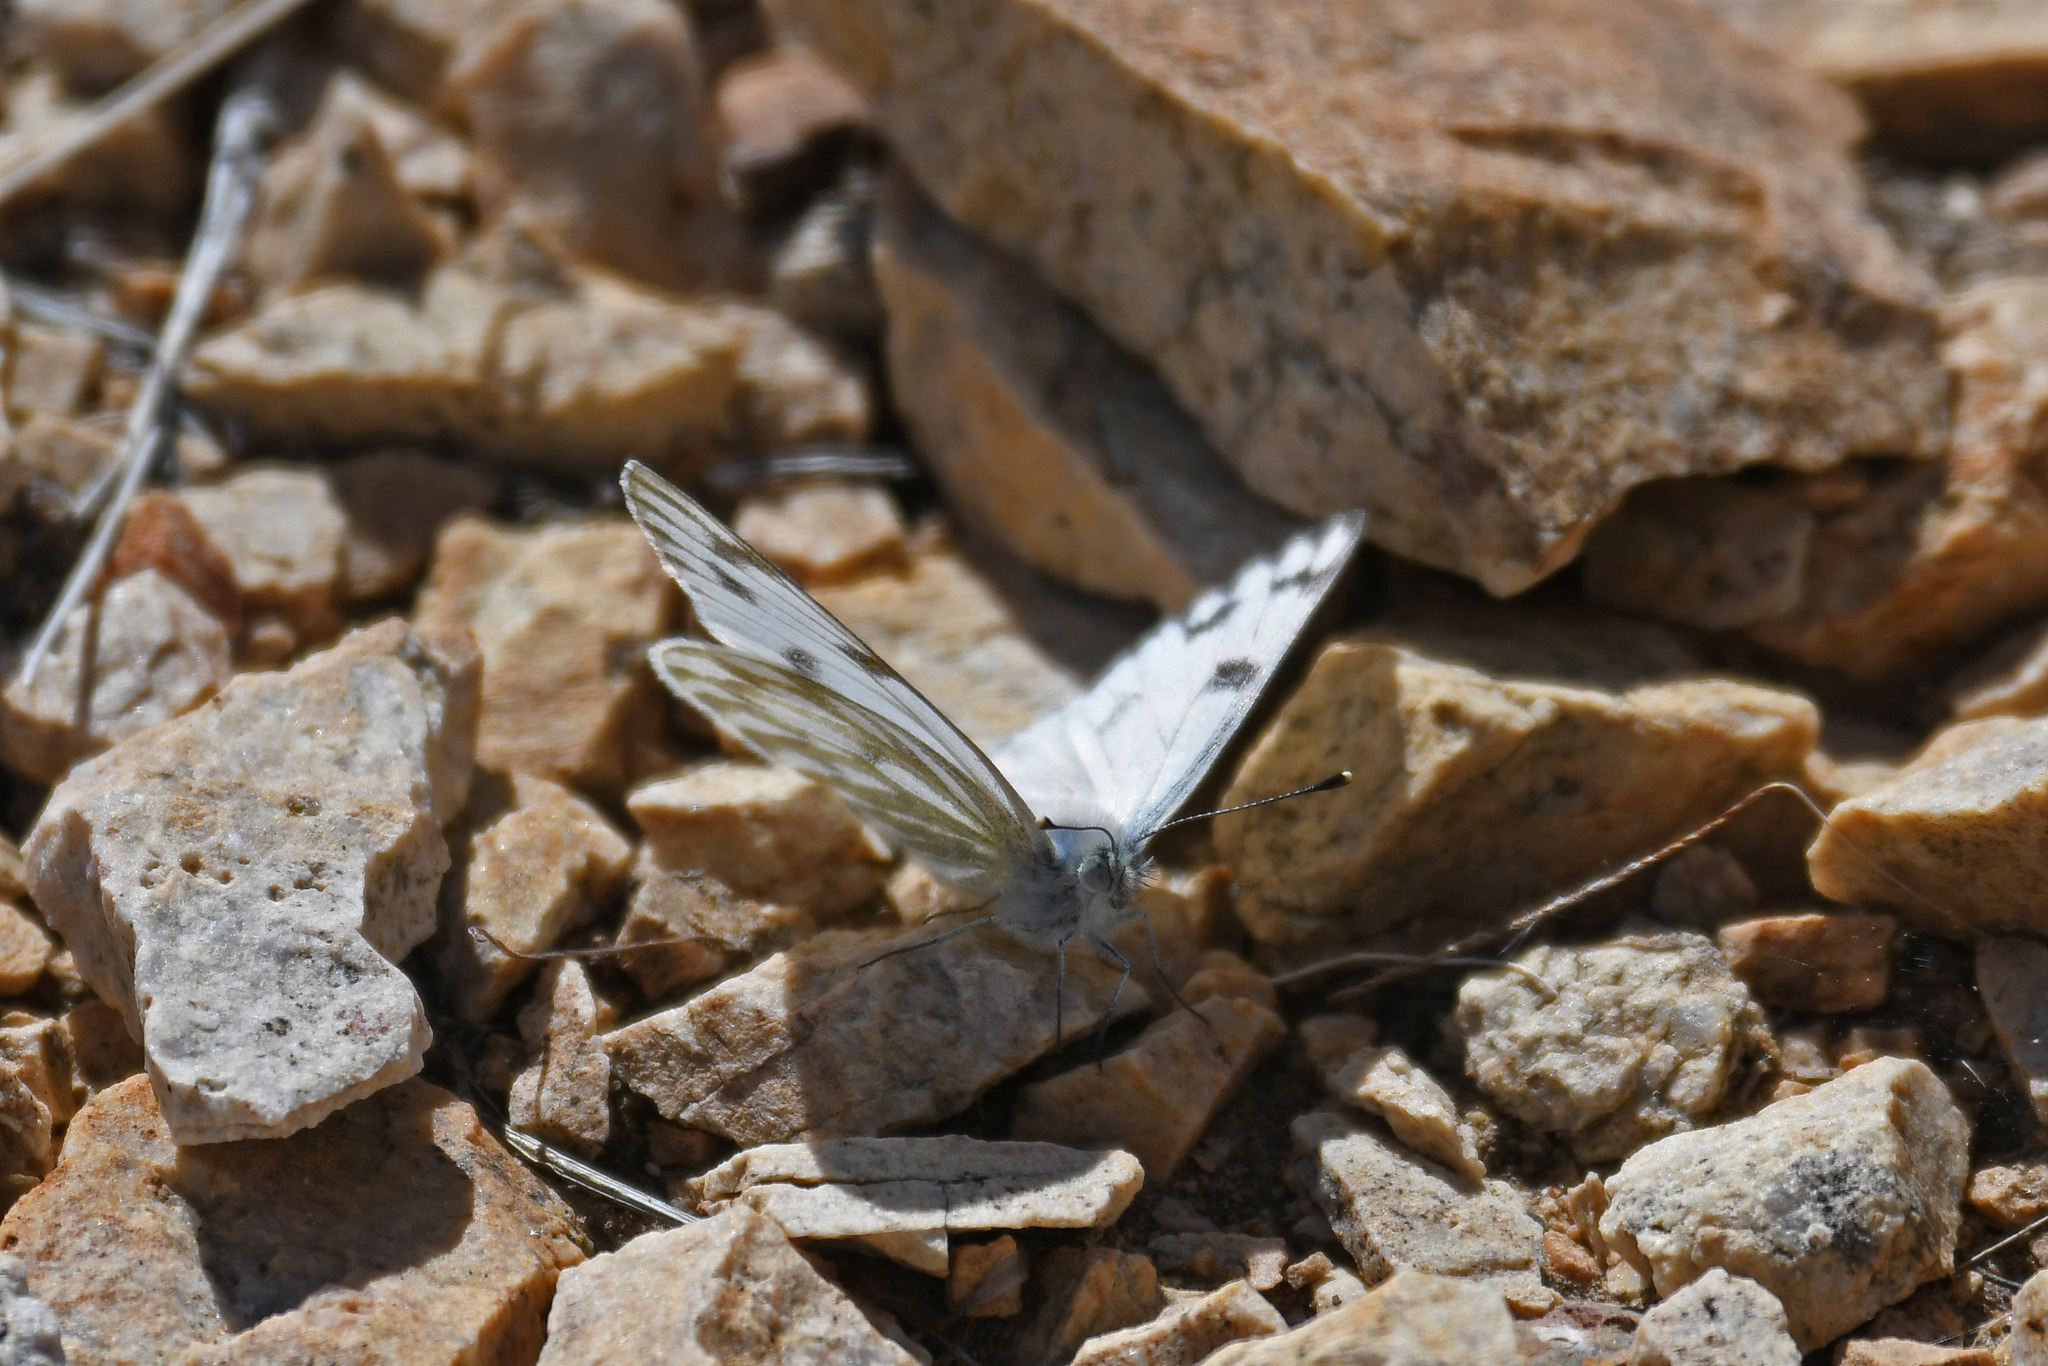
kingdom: Animalia
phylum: Arthropoda
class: Insecta
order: Lepidoptera
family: Pieridae
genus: Pontia
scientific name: Pontia protodice
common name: Checkered white
